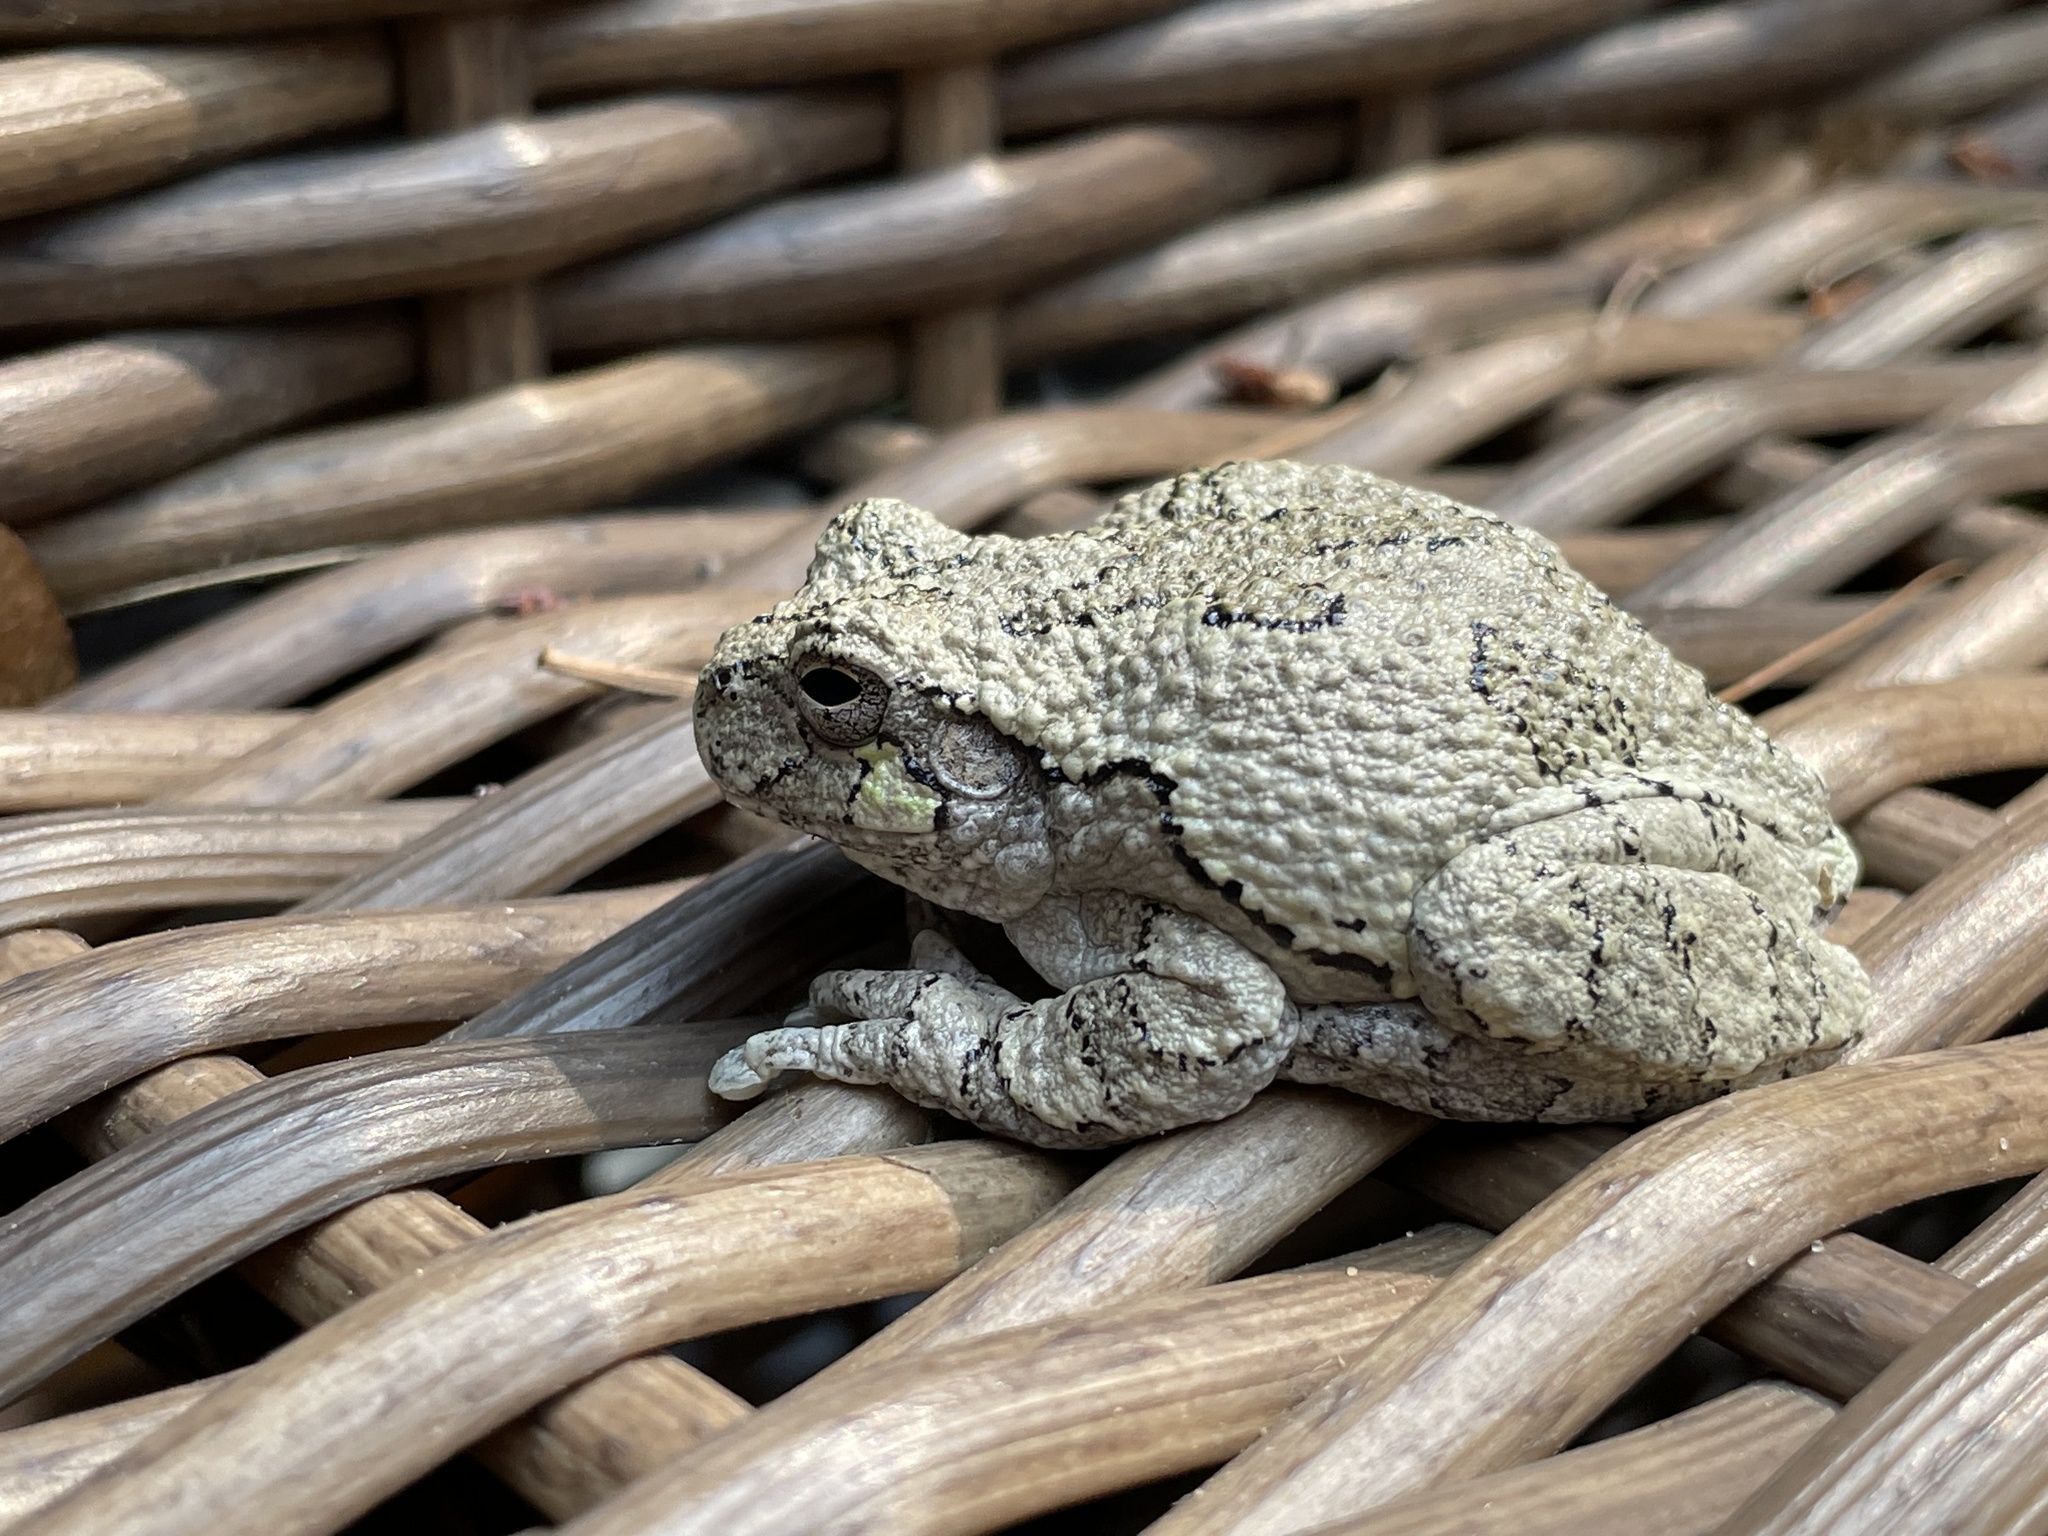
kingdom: Animalia
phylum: Chordata
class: Amphibia
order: Anura
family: Hylidae
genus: Dryophytes
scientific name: Dryophytes versicolor
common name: Gray treefrog
